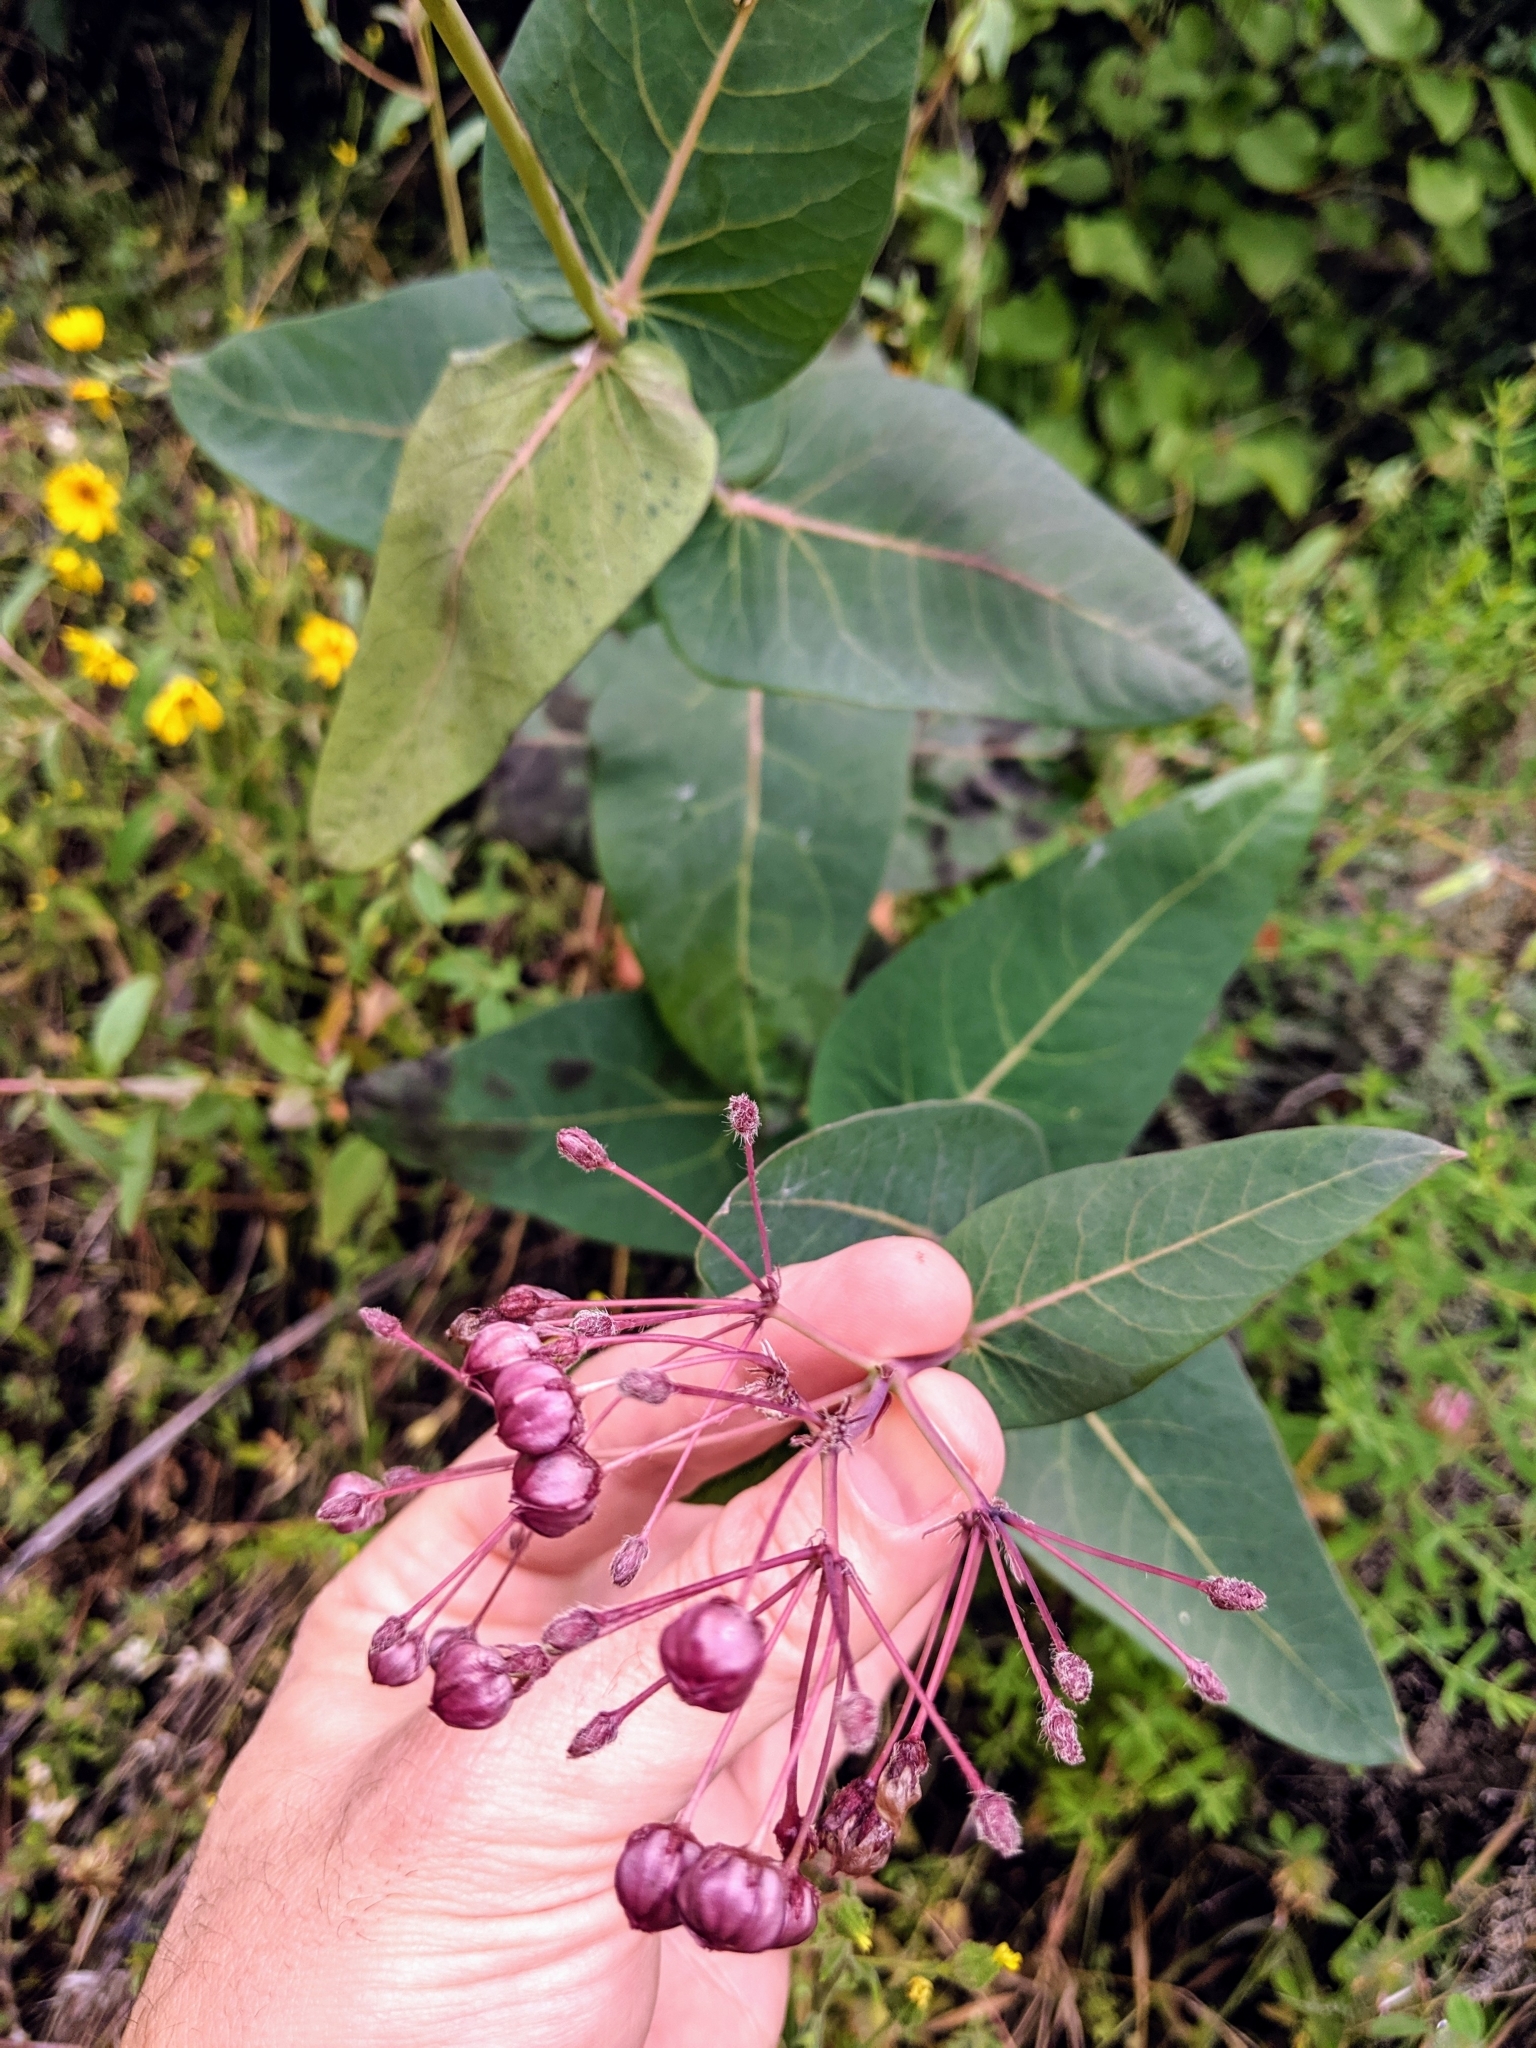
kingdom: Plantae
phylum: Tracheophyta
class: Magnoliopsida
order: Gentianales
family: Apocynaceae
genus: Asclepias
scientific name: Asclepias cordifolia
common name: Purple milkweed
